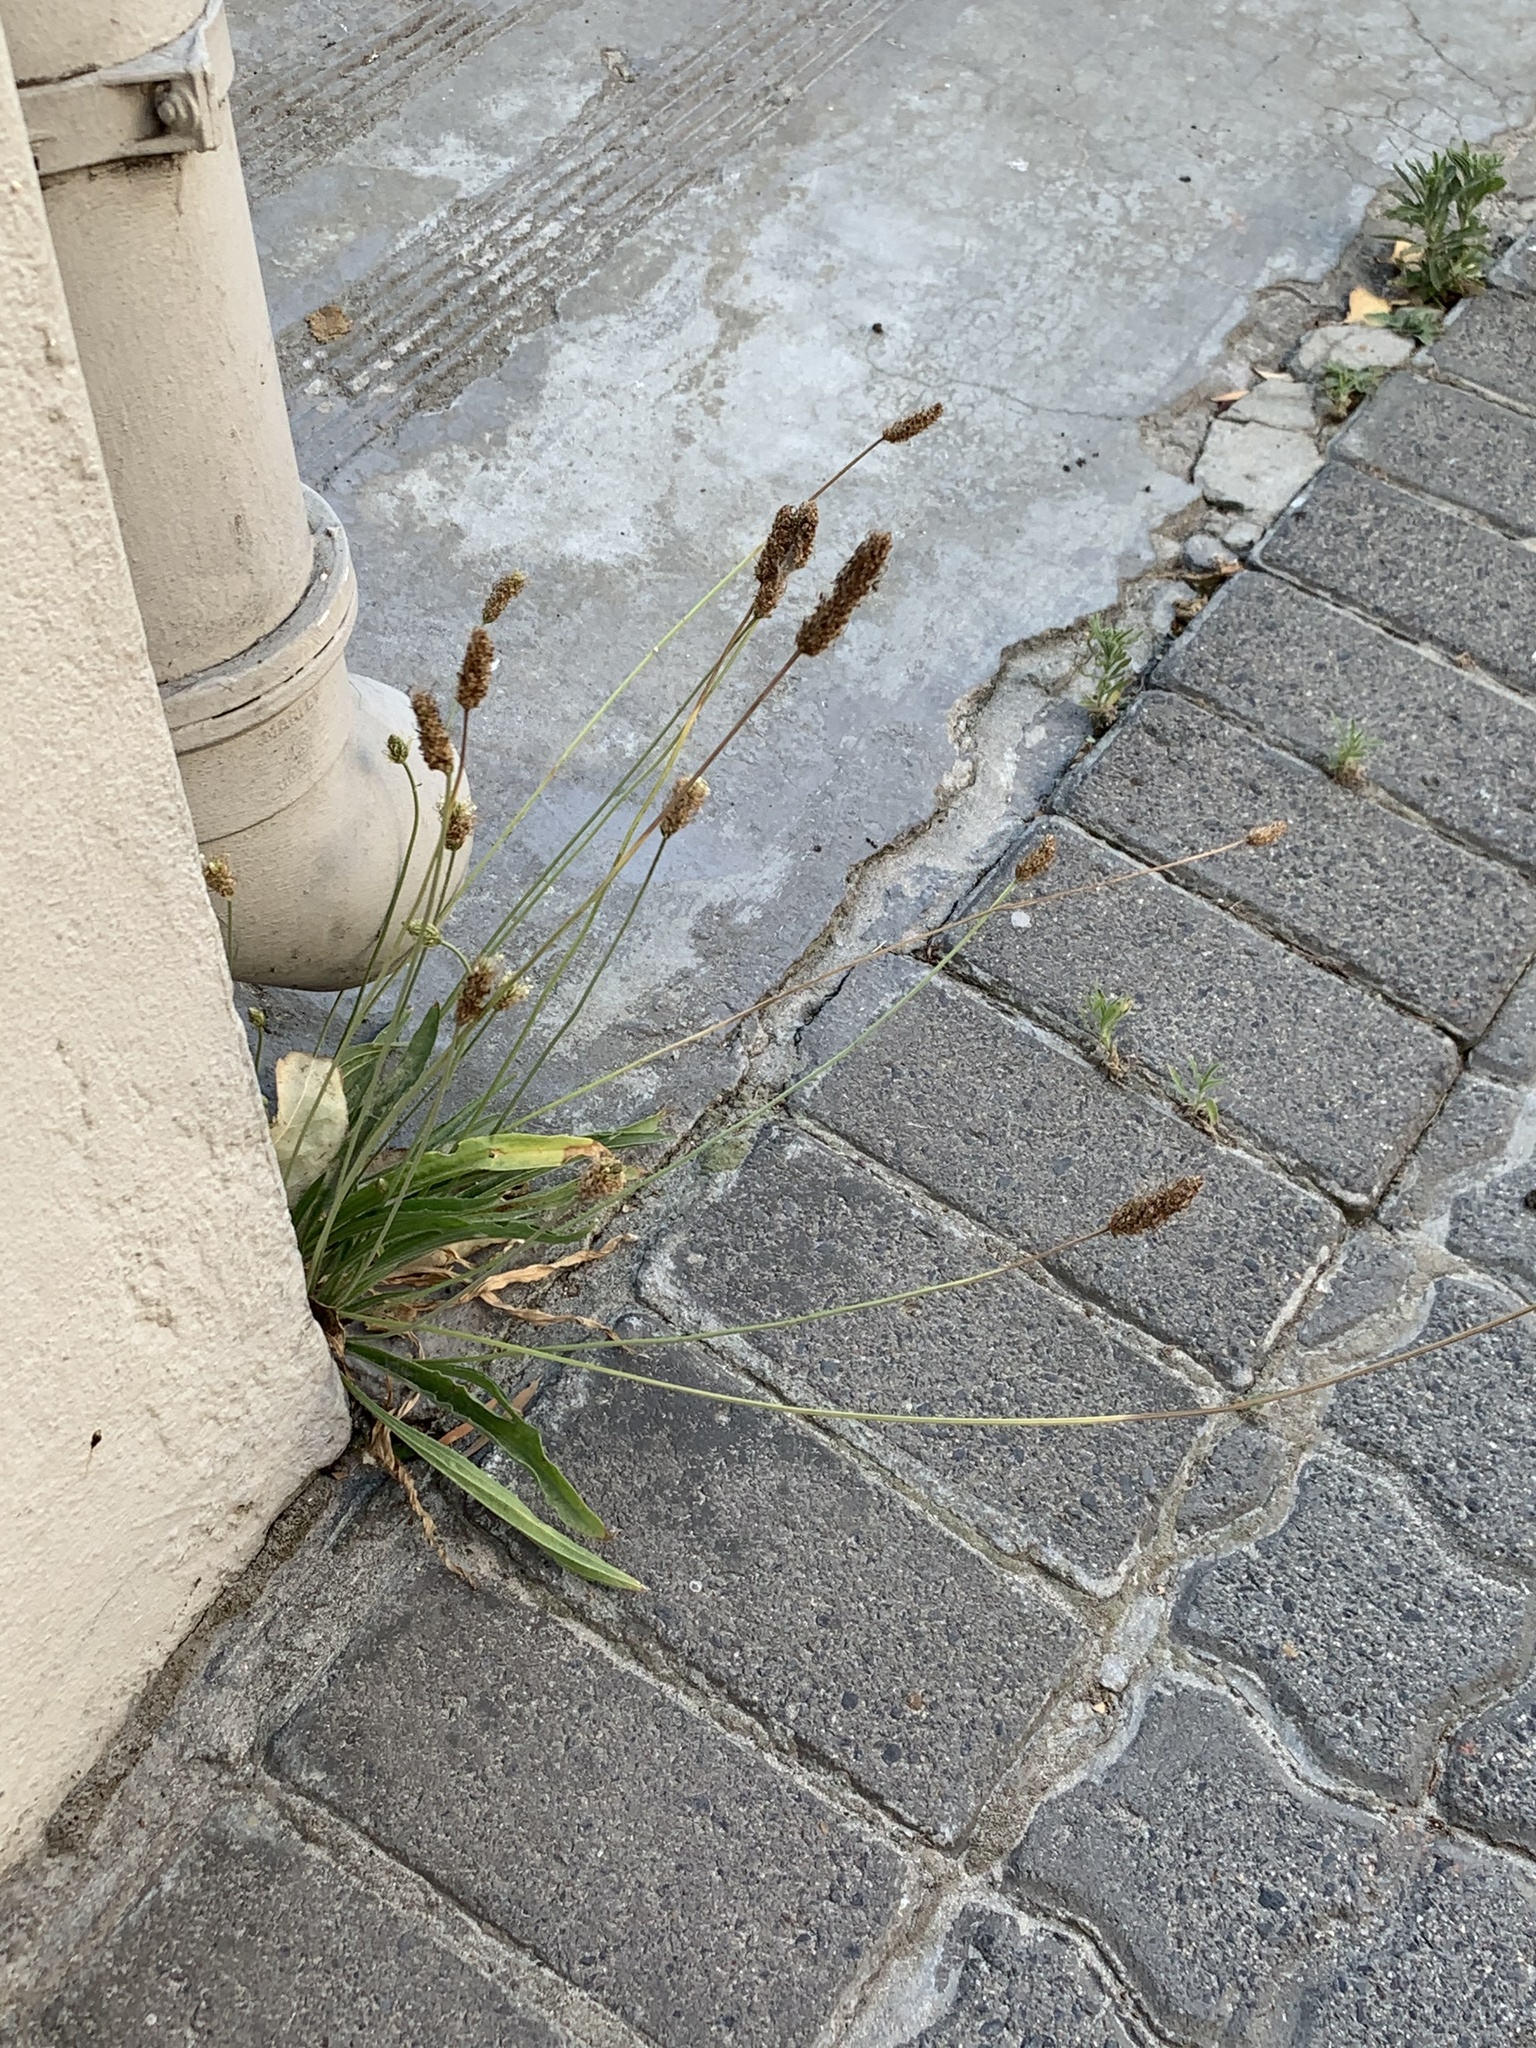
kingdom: Plantae
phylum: Tracheophyta
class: Magnoliopsida
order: Lamiales
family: Plantaginaceae
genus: Plantago
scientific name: Plantago lanceolata
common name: Ribwort plantain
